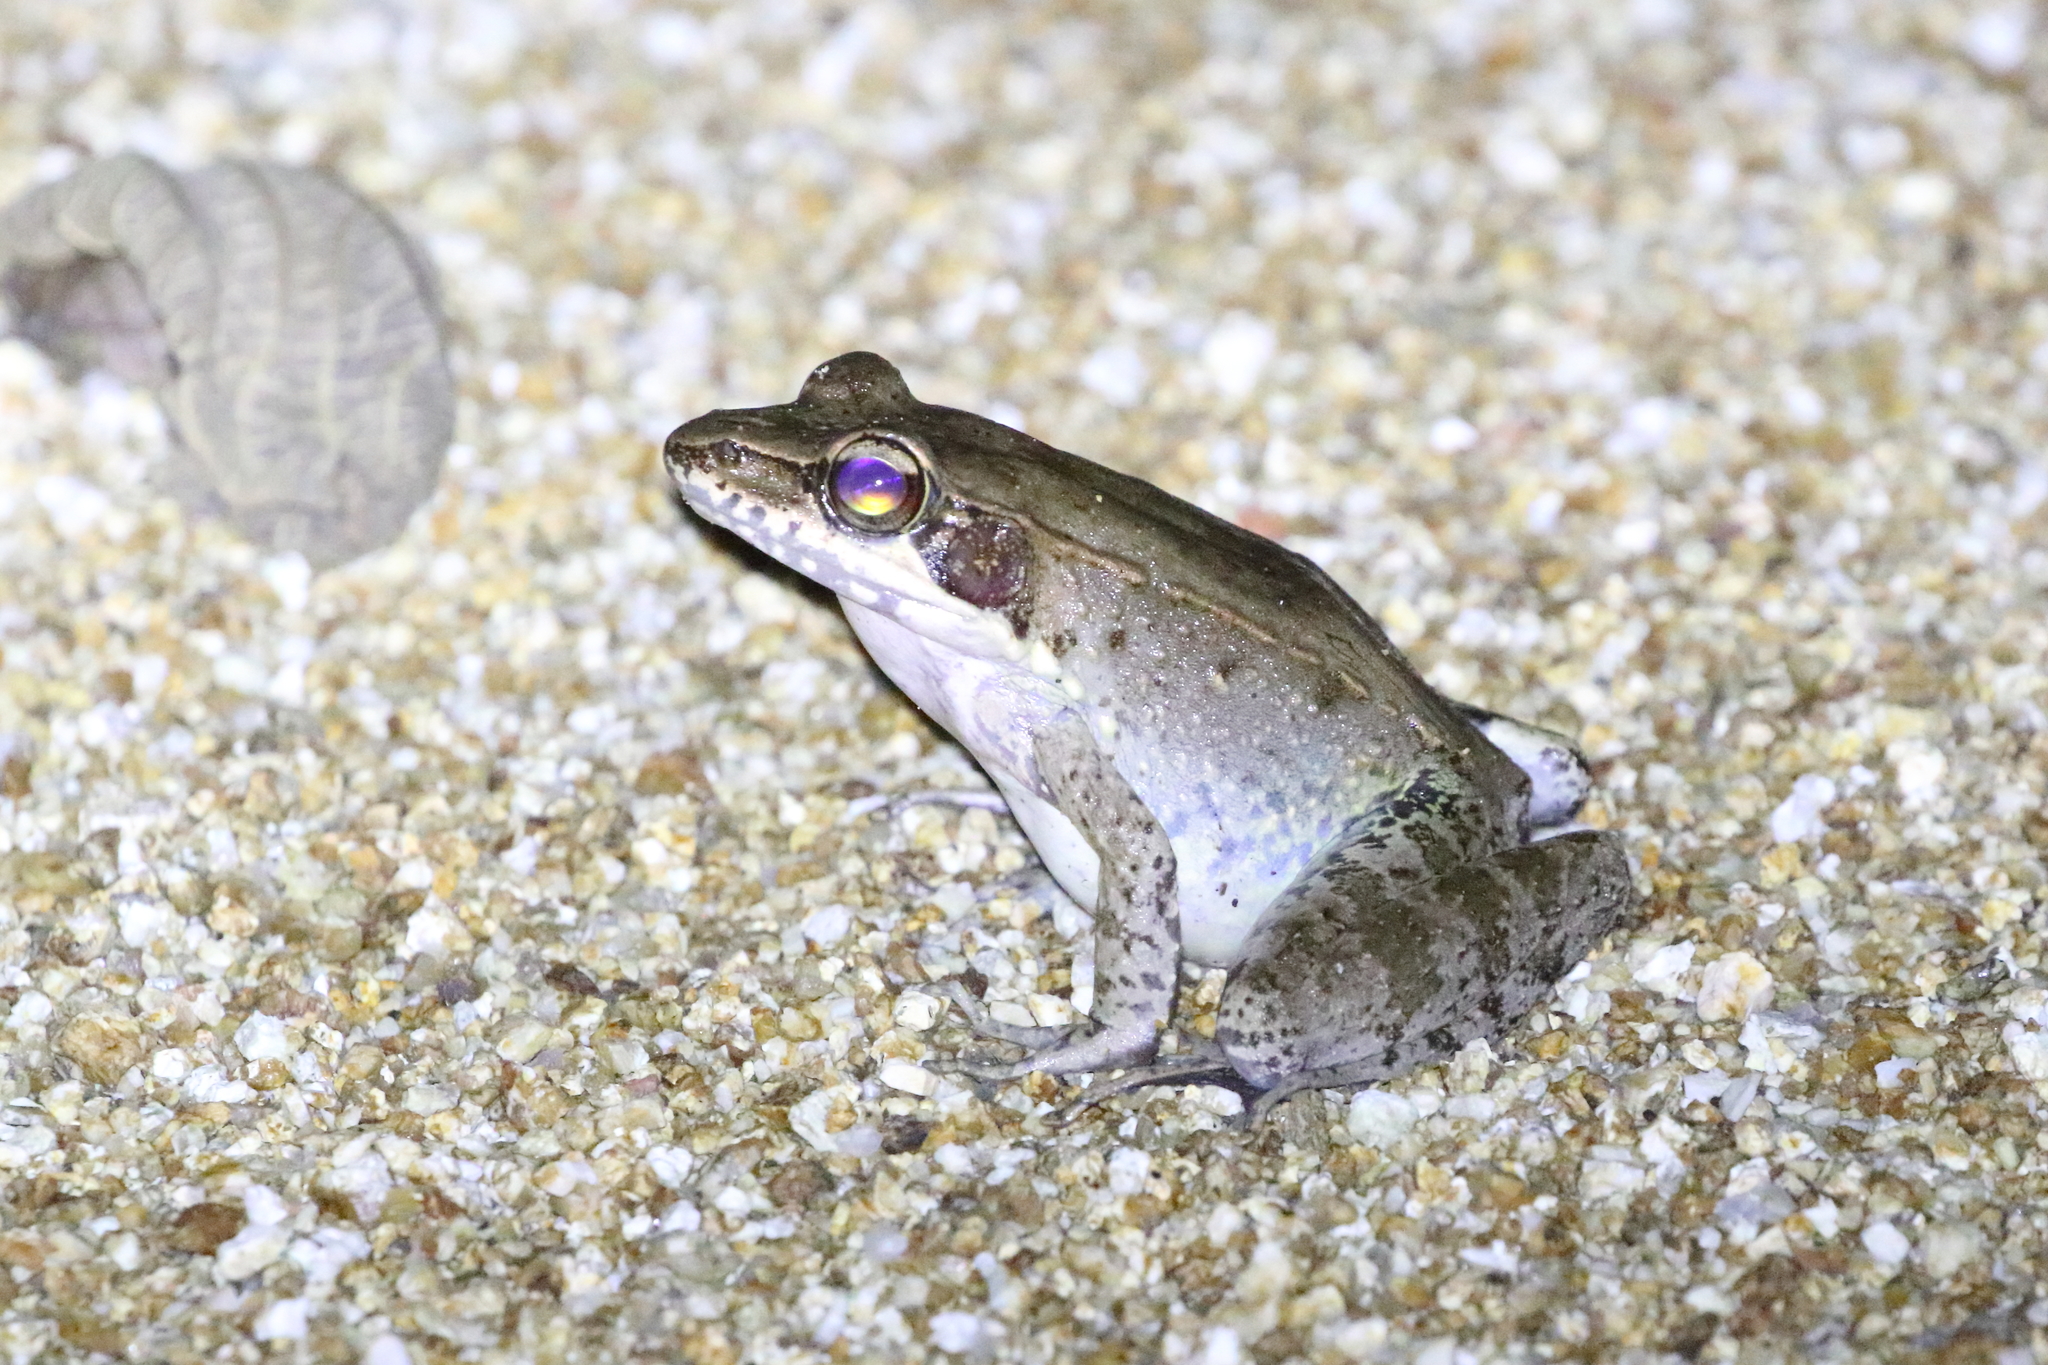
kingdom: Animalia
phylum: Chordata
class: Amphibia
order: Anura
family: Ranidae
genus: Papurana
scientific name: Papurana daemeli
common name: Arhem rana
